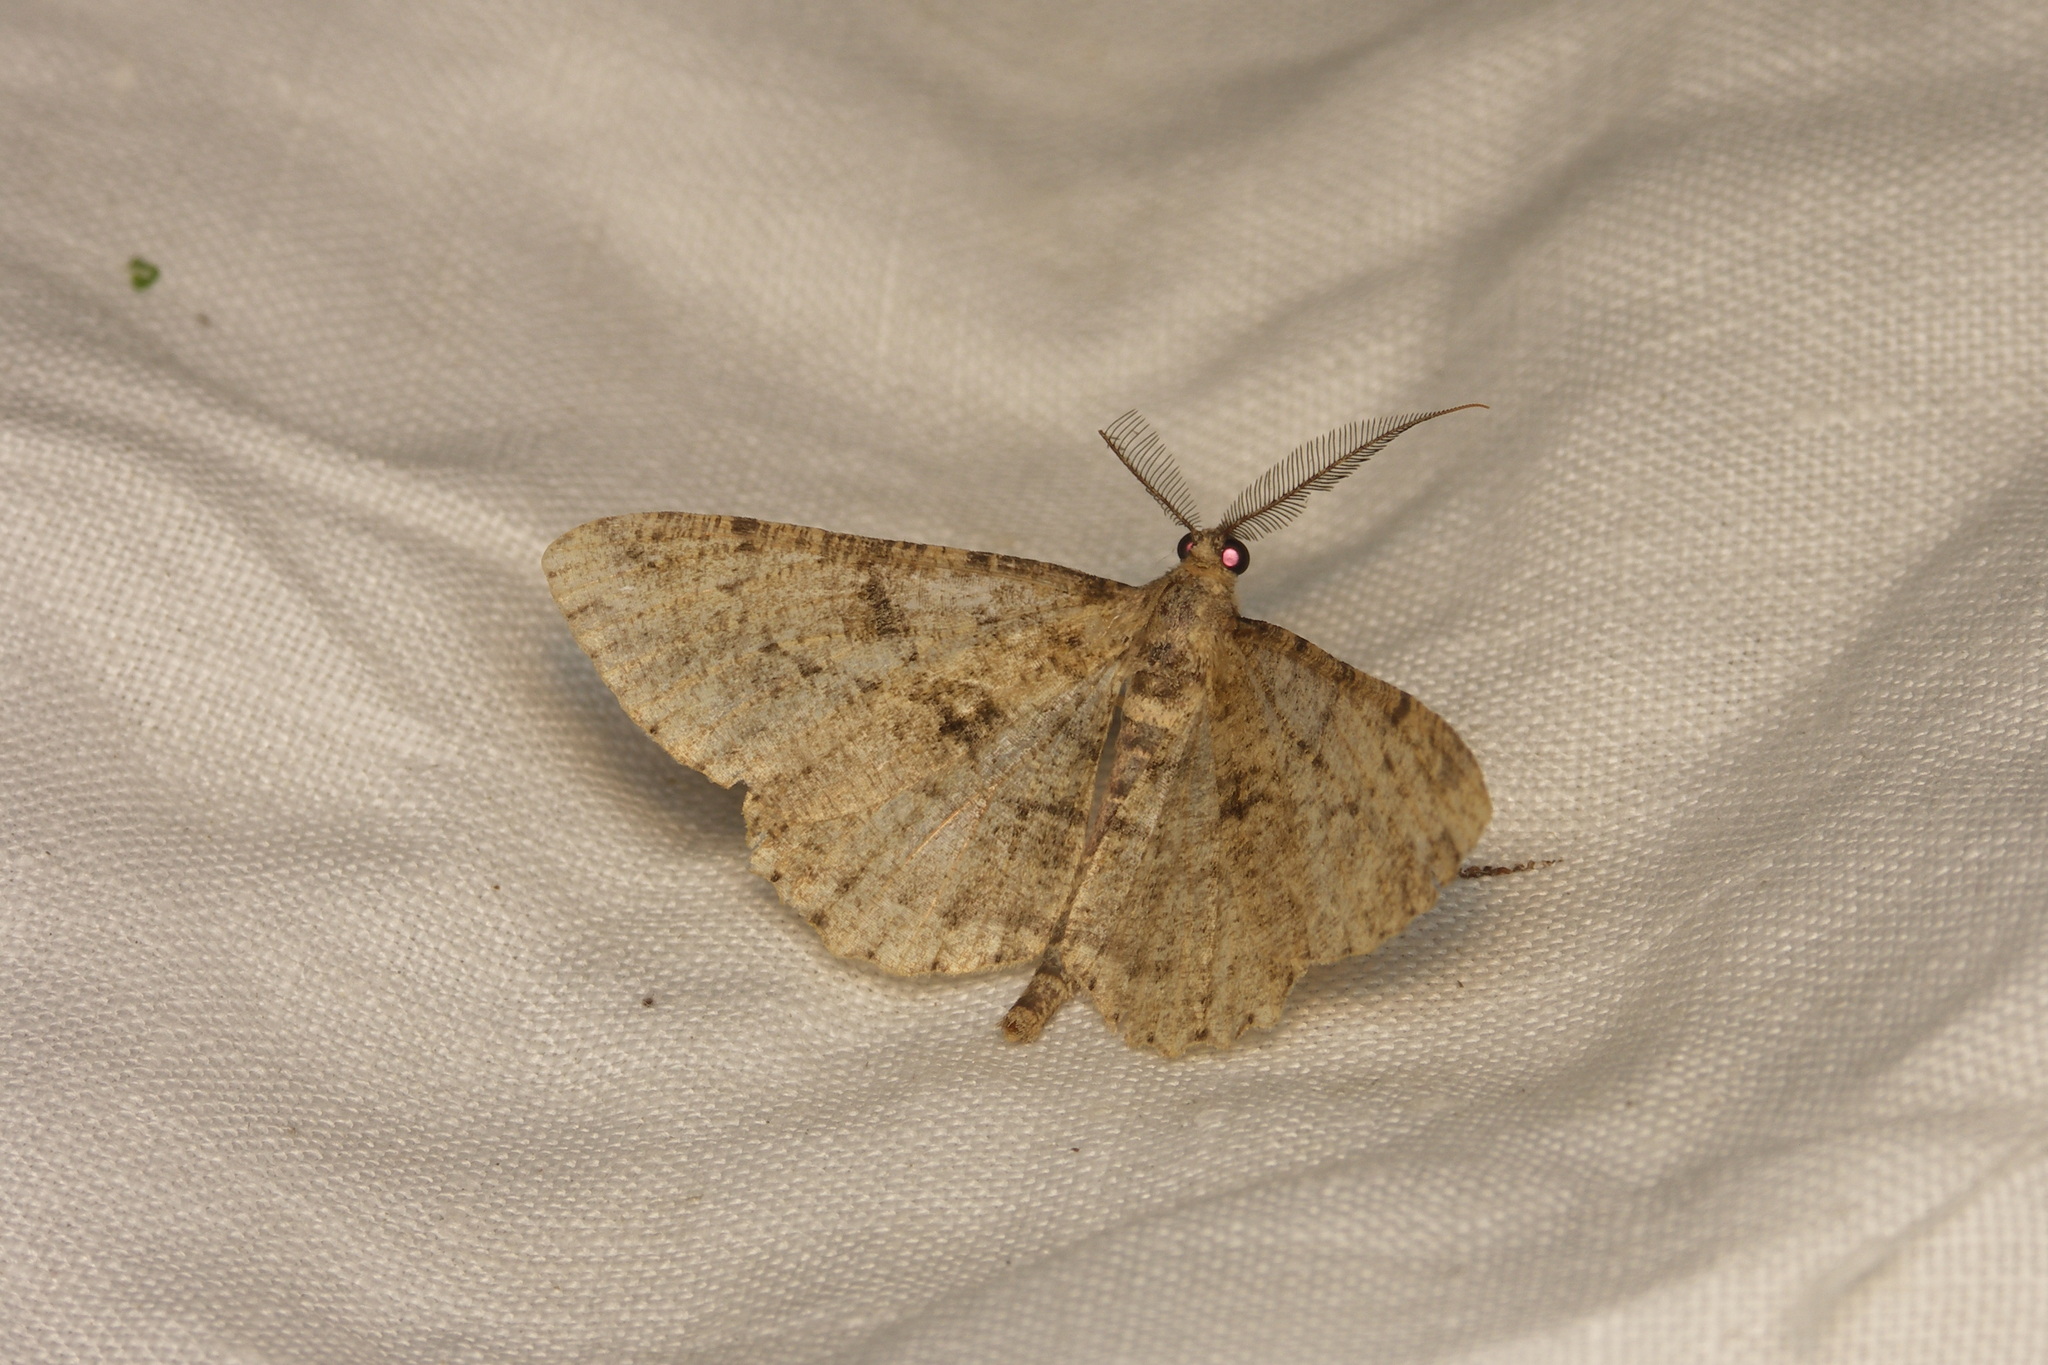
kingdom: Animalia
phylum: Arthropoda
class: Insecta
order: Lepidoptera
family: Geometridae
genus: Peribatodes
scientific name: Peribatodes rhomboidaria
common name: Willow beauty
